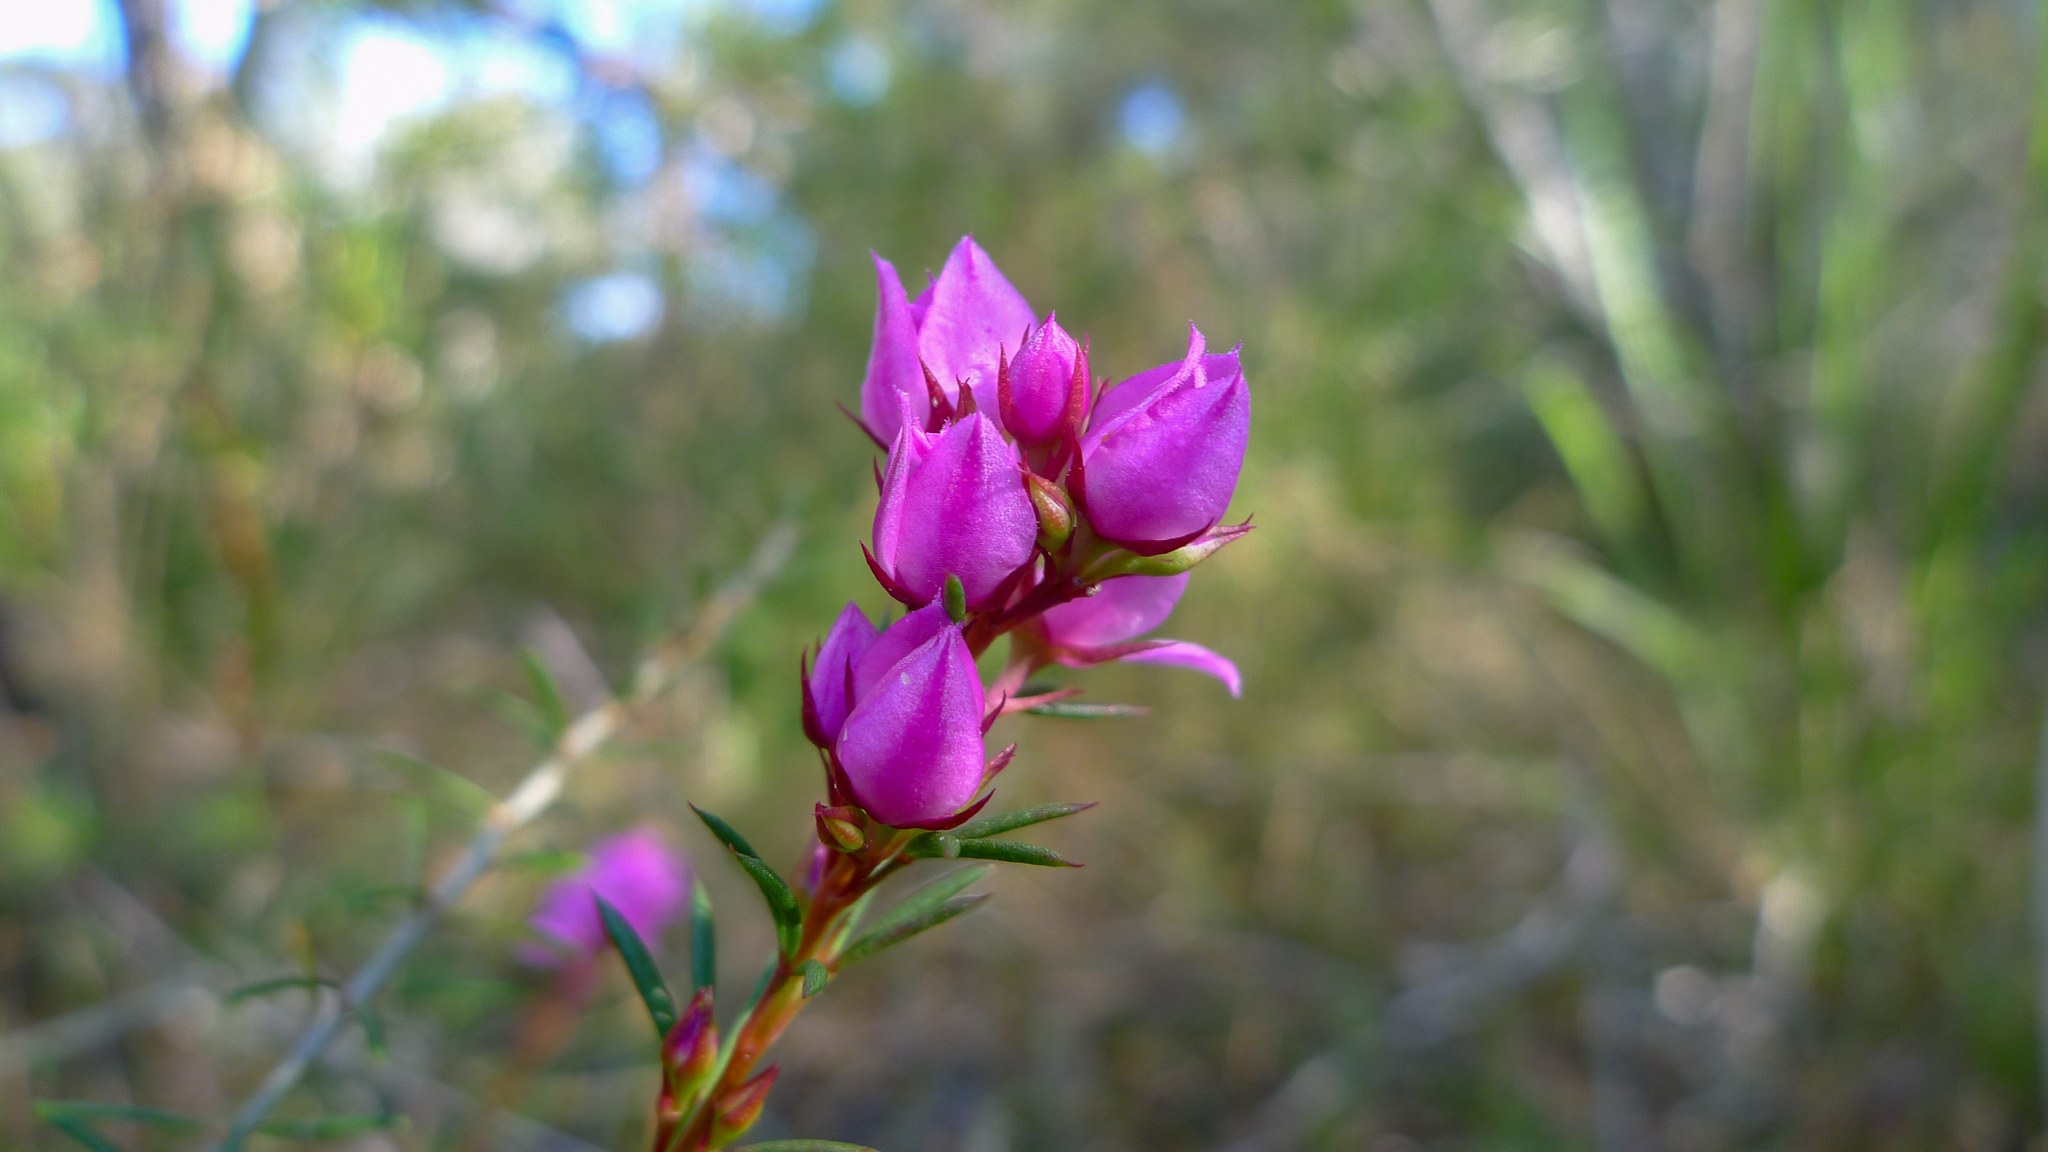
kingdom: Plantae
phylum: Tracheophyta
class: Magnoliopsida
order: Sapindales
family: Rutaceae
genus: Boronia
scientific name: Boronia falcifolia
